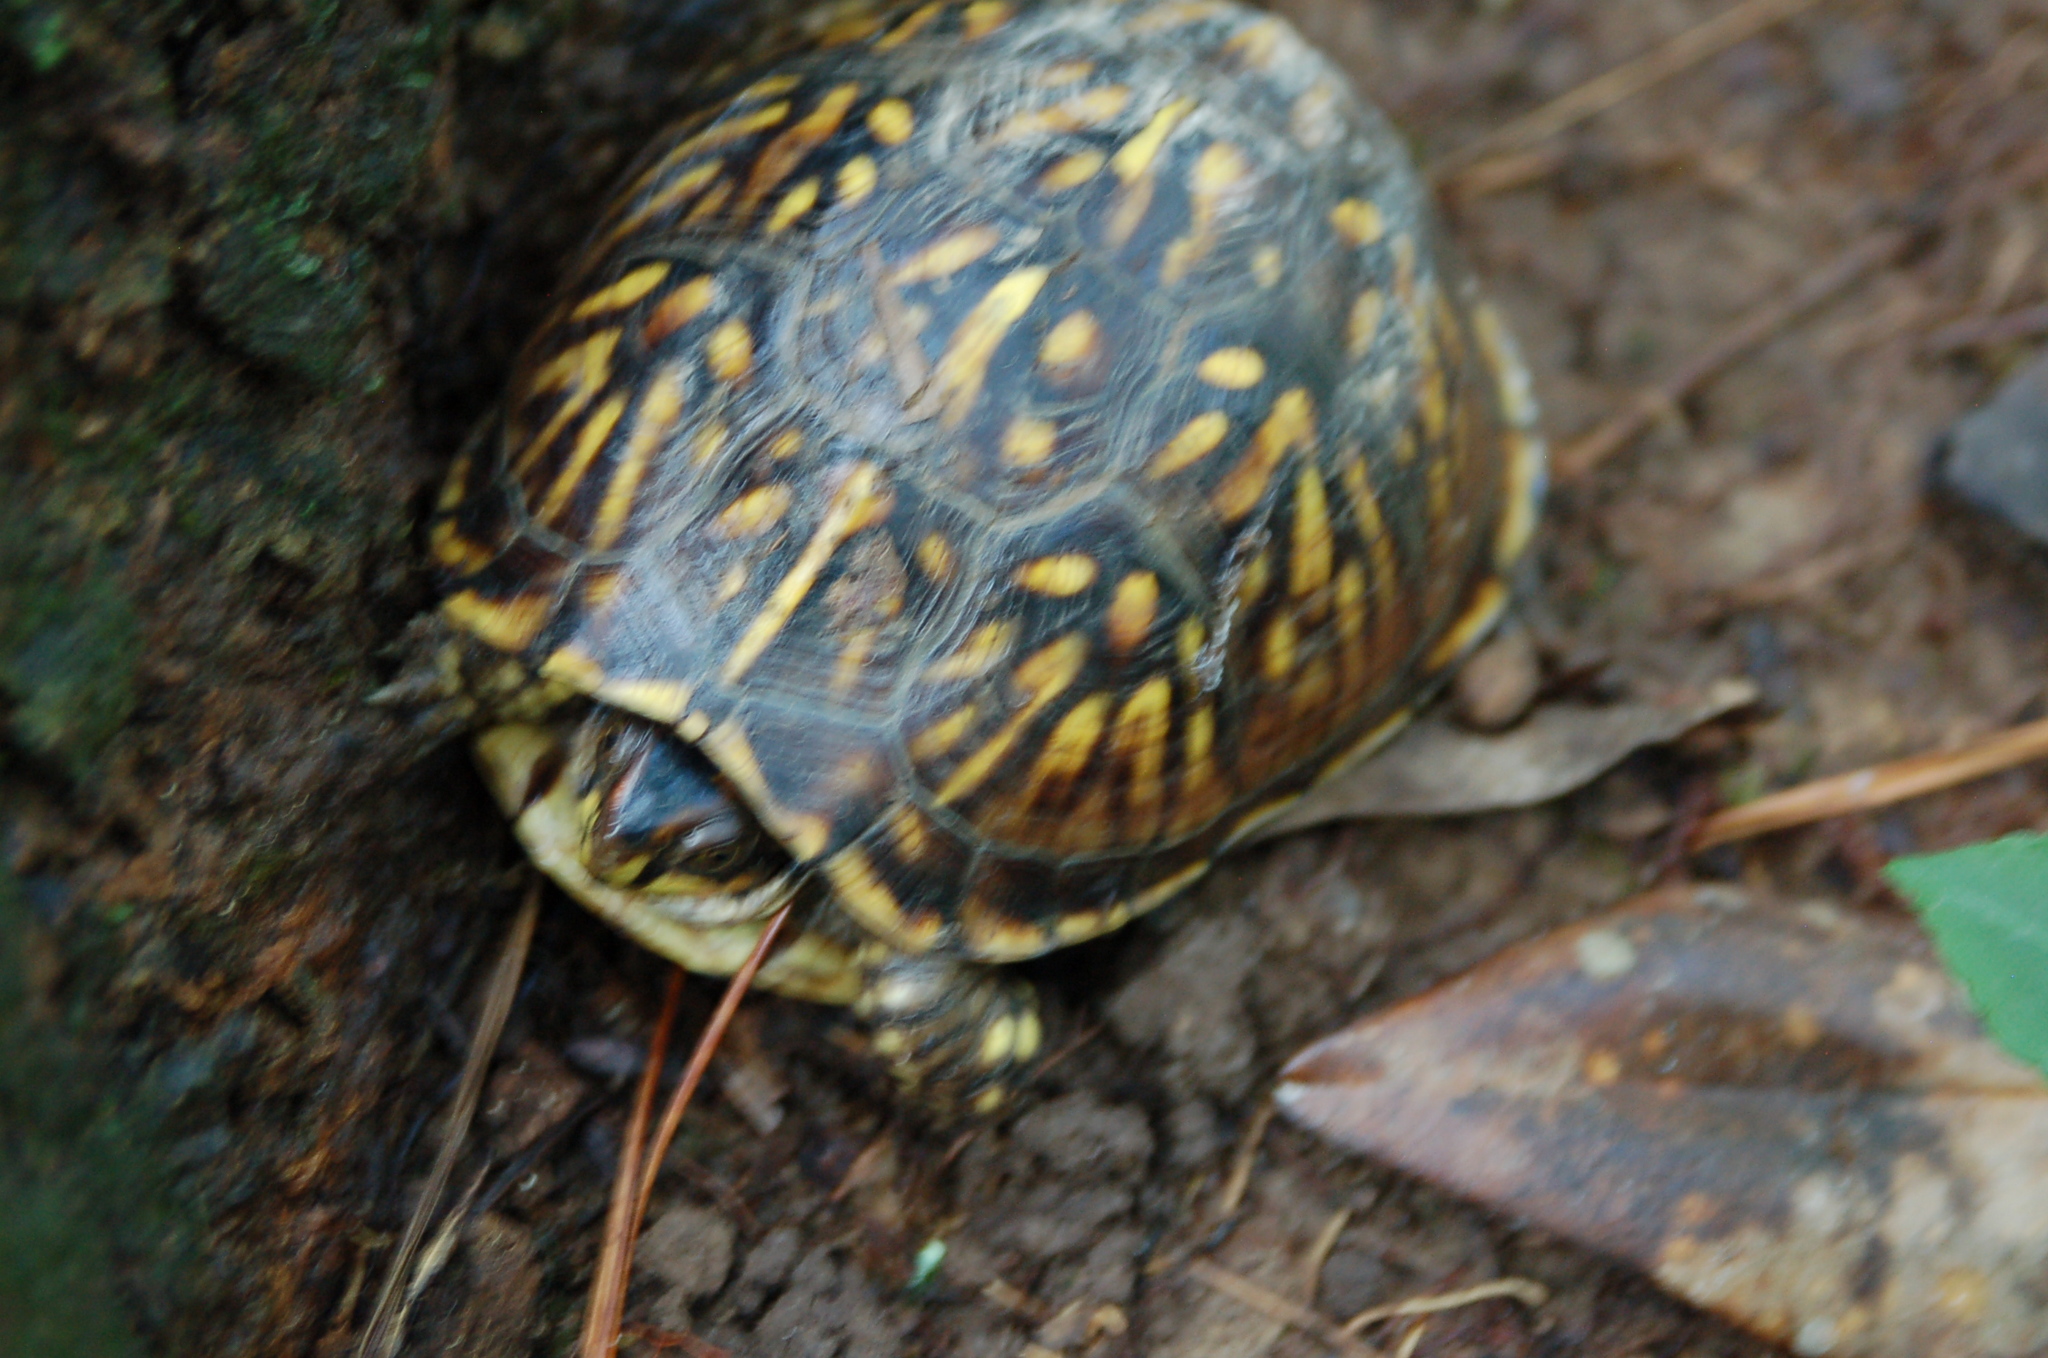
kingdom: Animalia
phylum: Chordata
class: Testudines
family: Emydidae
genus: Terrapene
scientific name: Terrapene carolina
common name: Common box turtle
